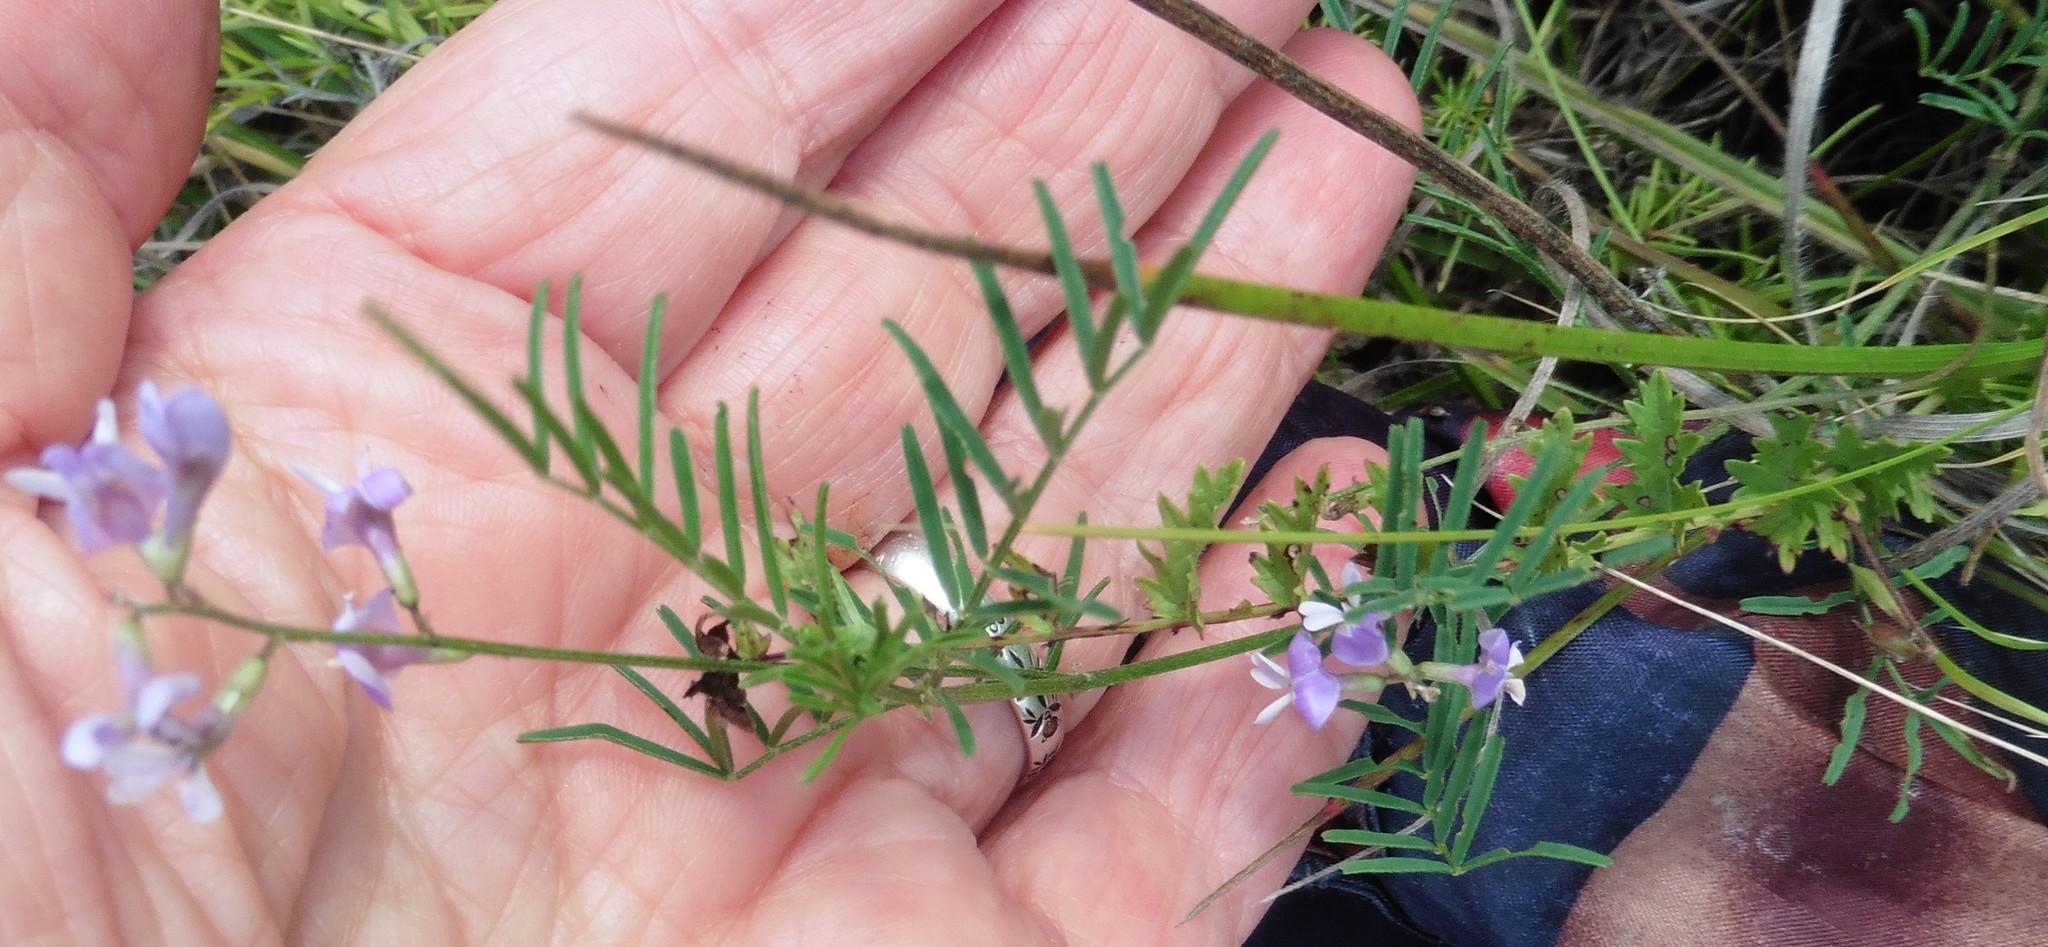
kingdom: Plantae
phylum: Tracheophyta
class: Magnoliopsida
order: Fabales
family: Fabaceae
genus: Astragalus
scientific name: Astragalus austriacus
